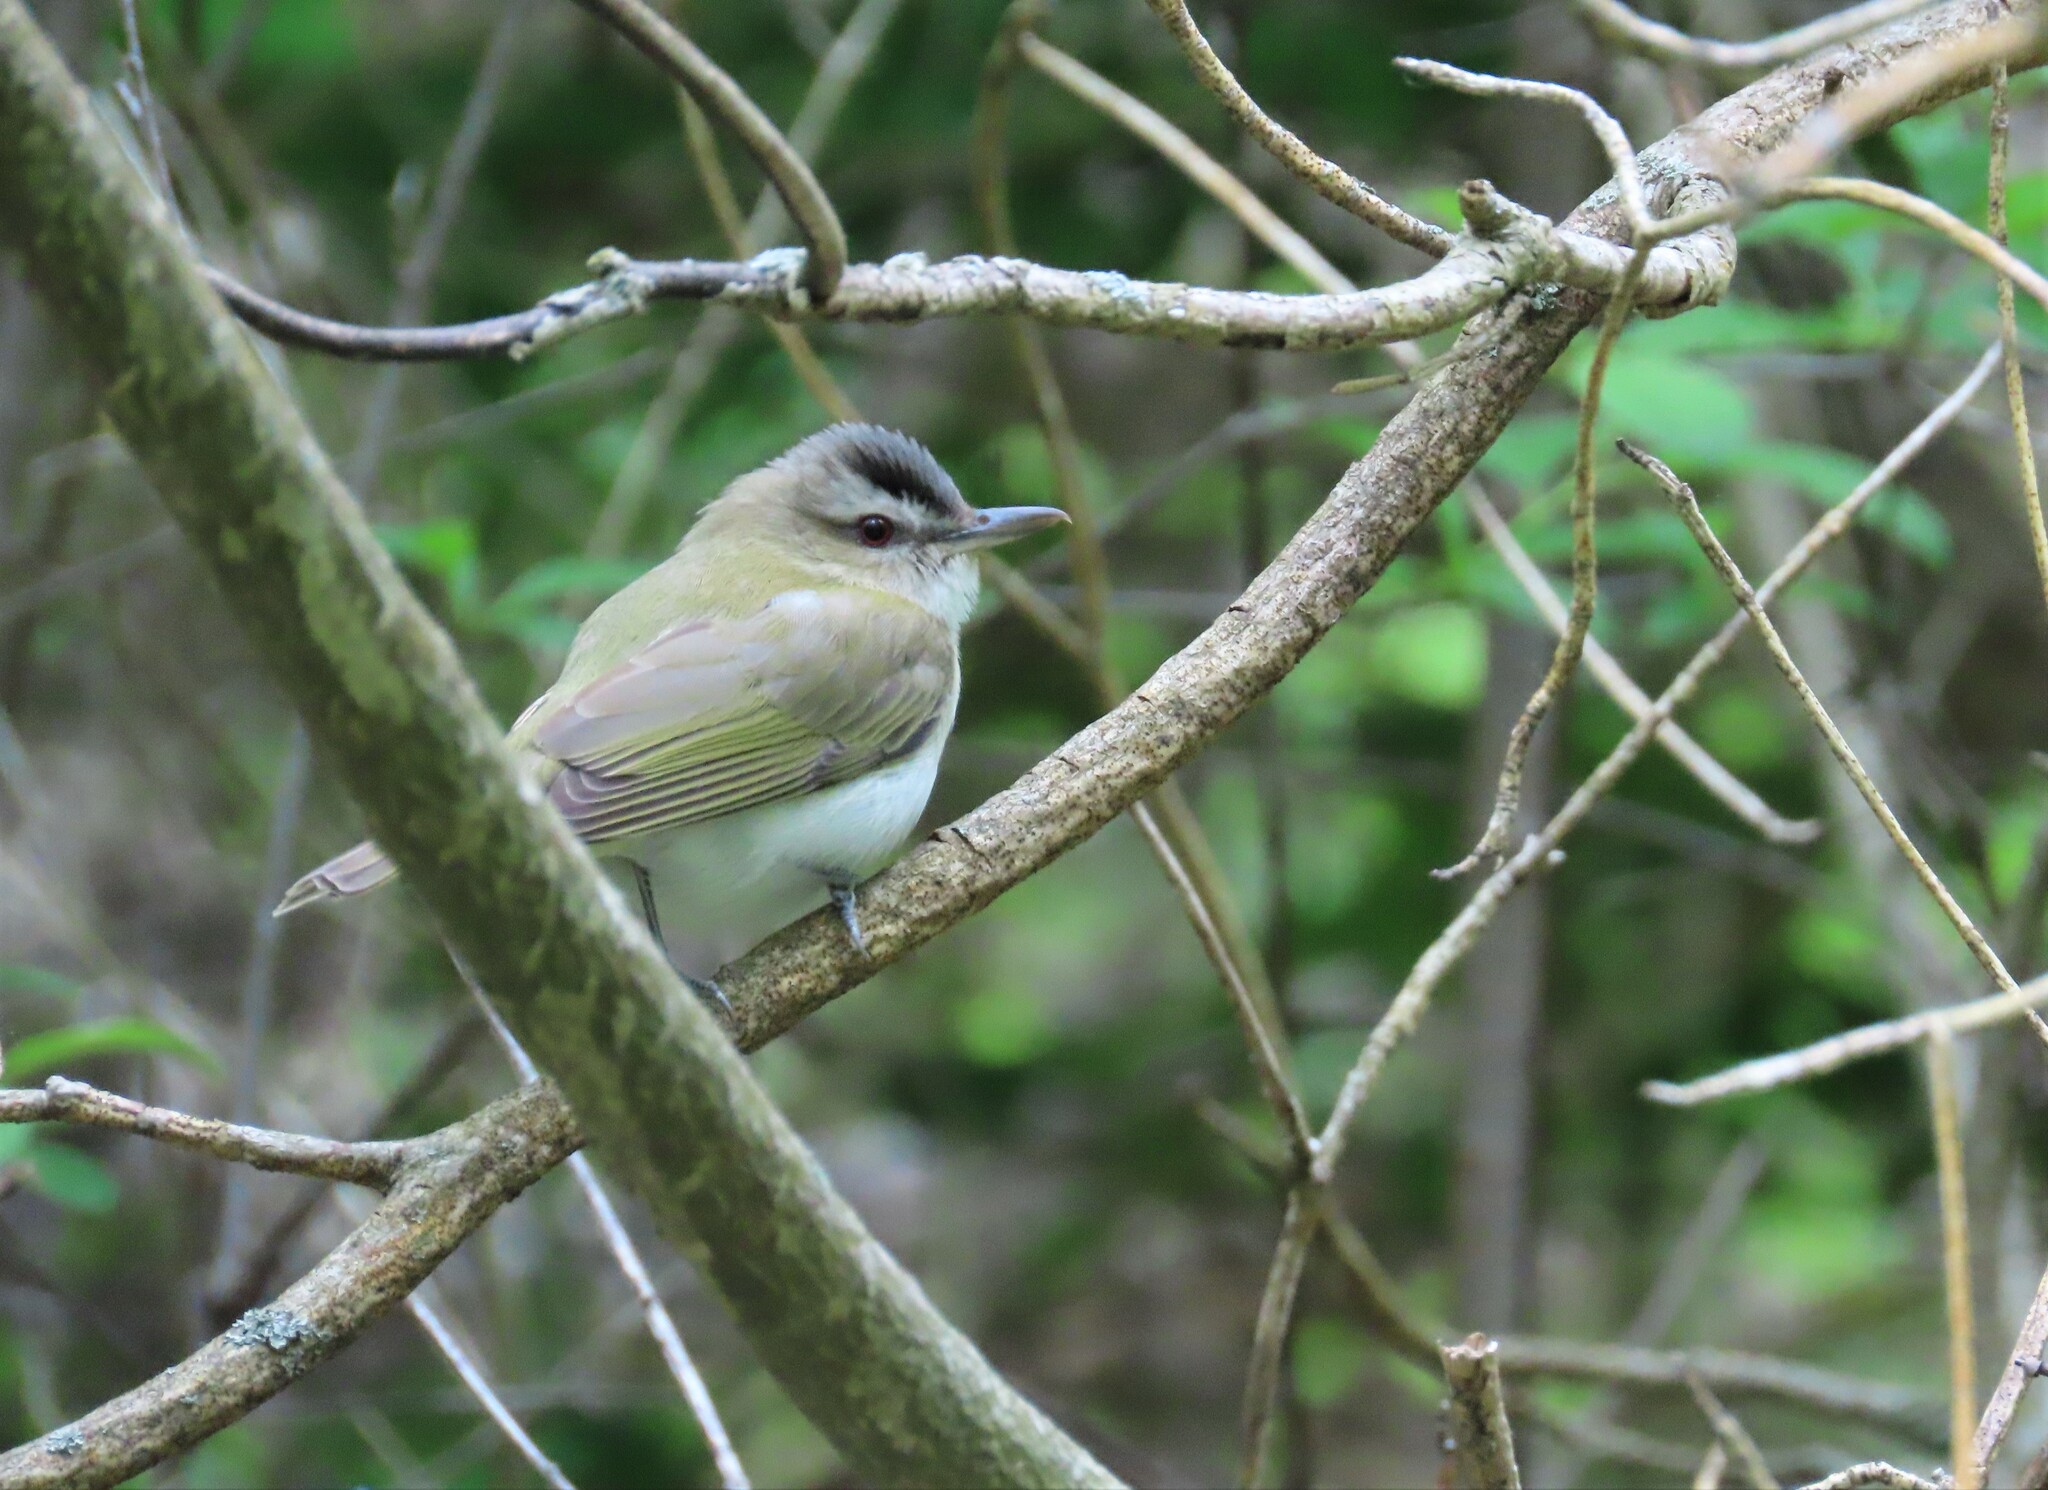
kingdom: Animalia
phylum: Chordata
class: Aves
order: Passeriformes
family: Vireonidae
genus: Vireo
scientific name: Vireo olivaceus
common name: Red-eyed vireo
